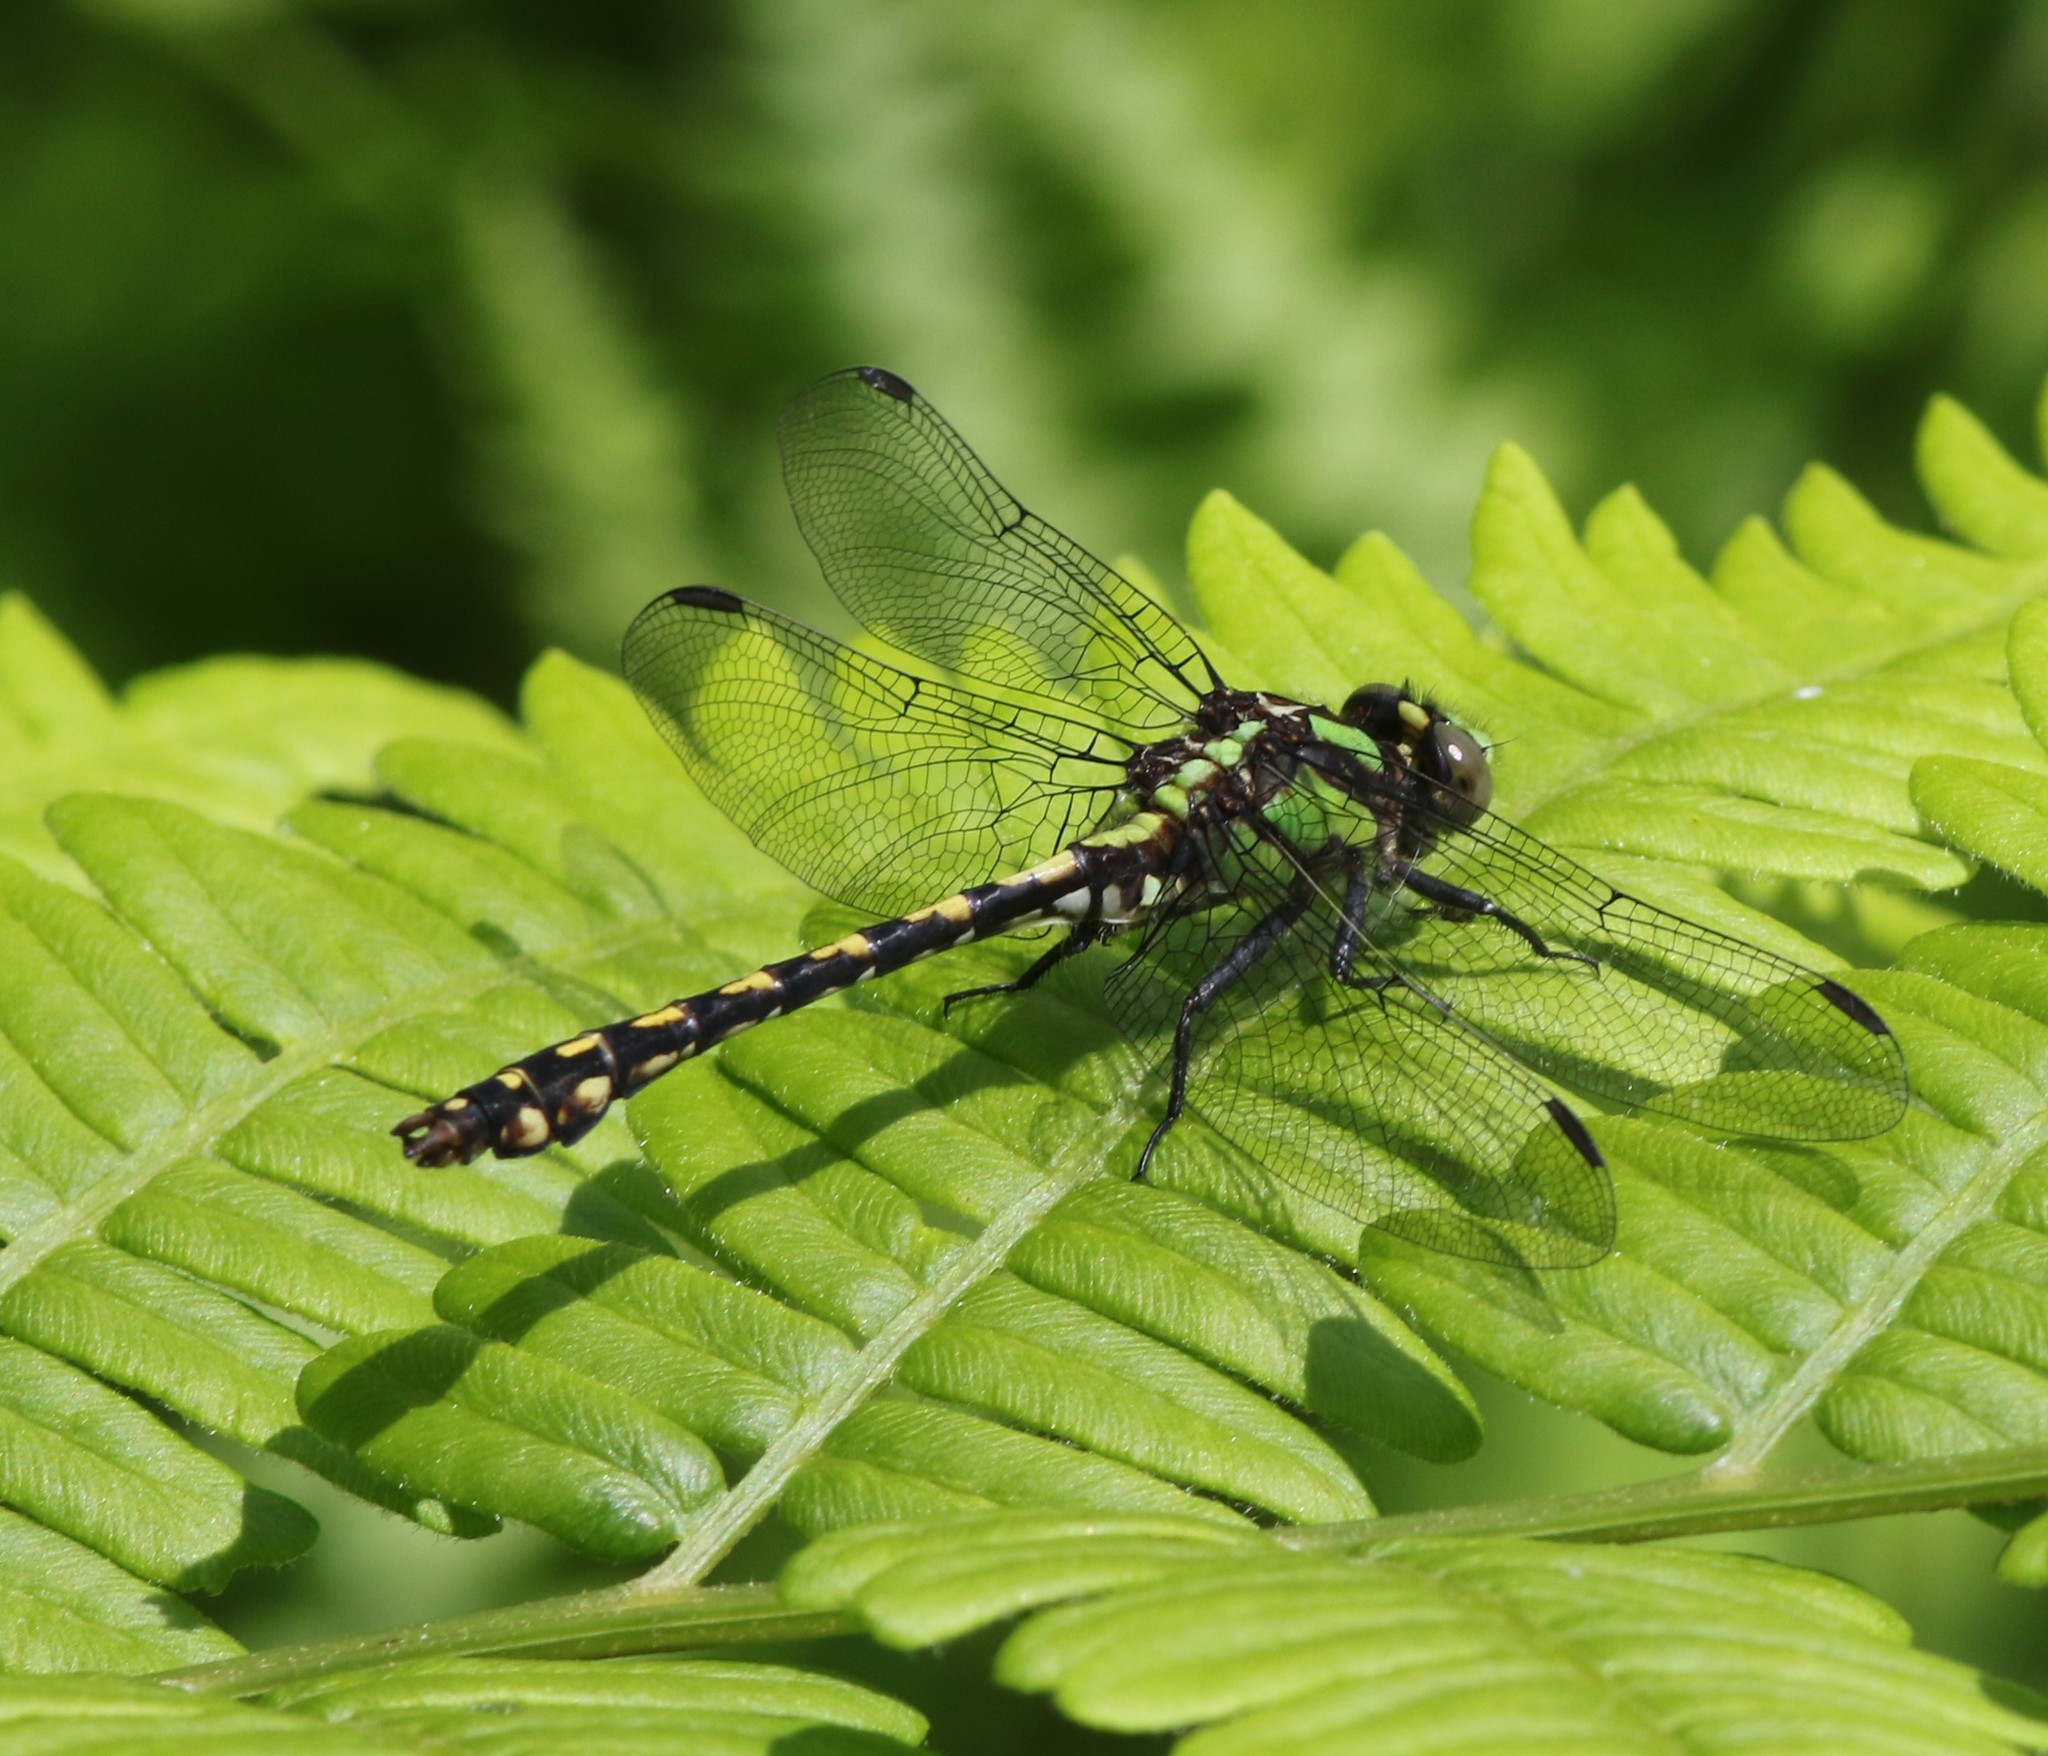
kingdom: Animalia
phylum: Arthropoda
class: Insecta
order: Odonata
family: Gomphidae
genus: Ophiogomphus
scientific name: Ophiogomphus carolus
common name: Riffle snaketail
